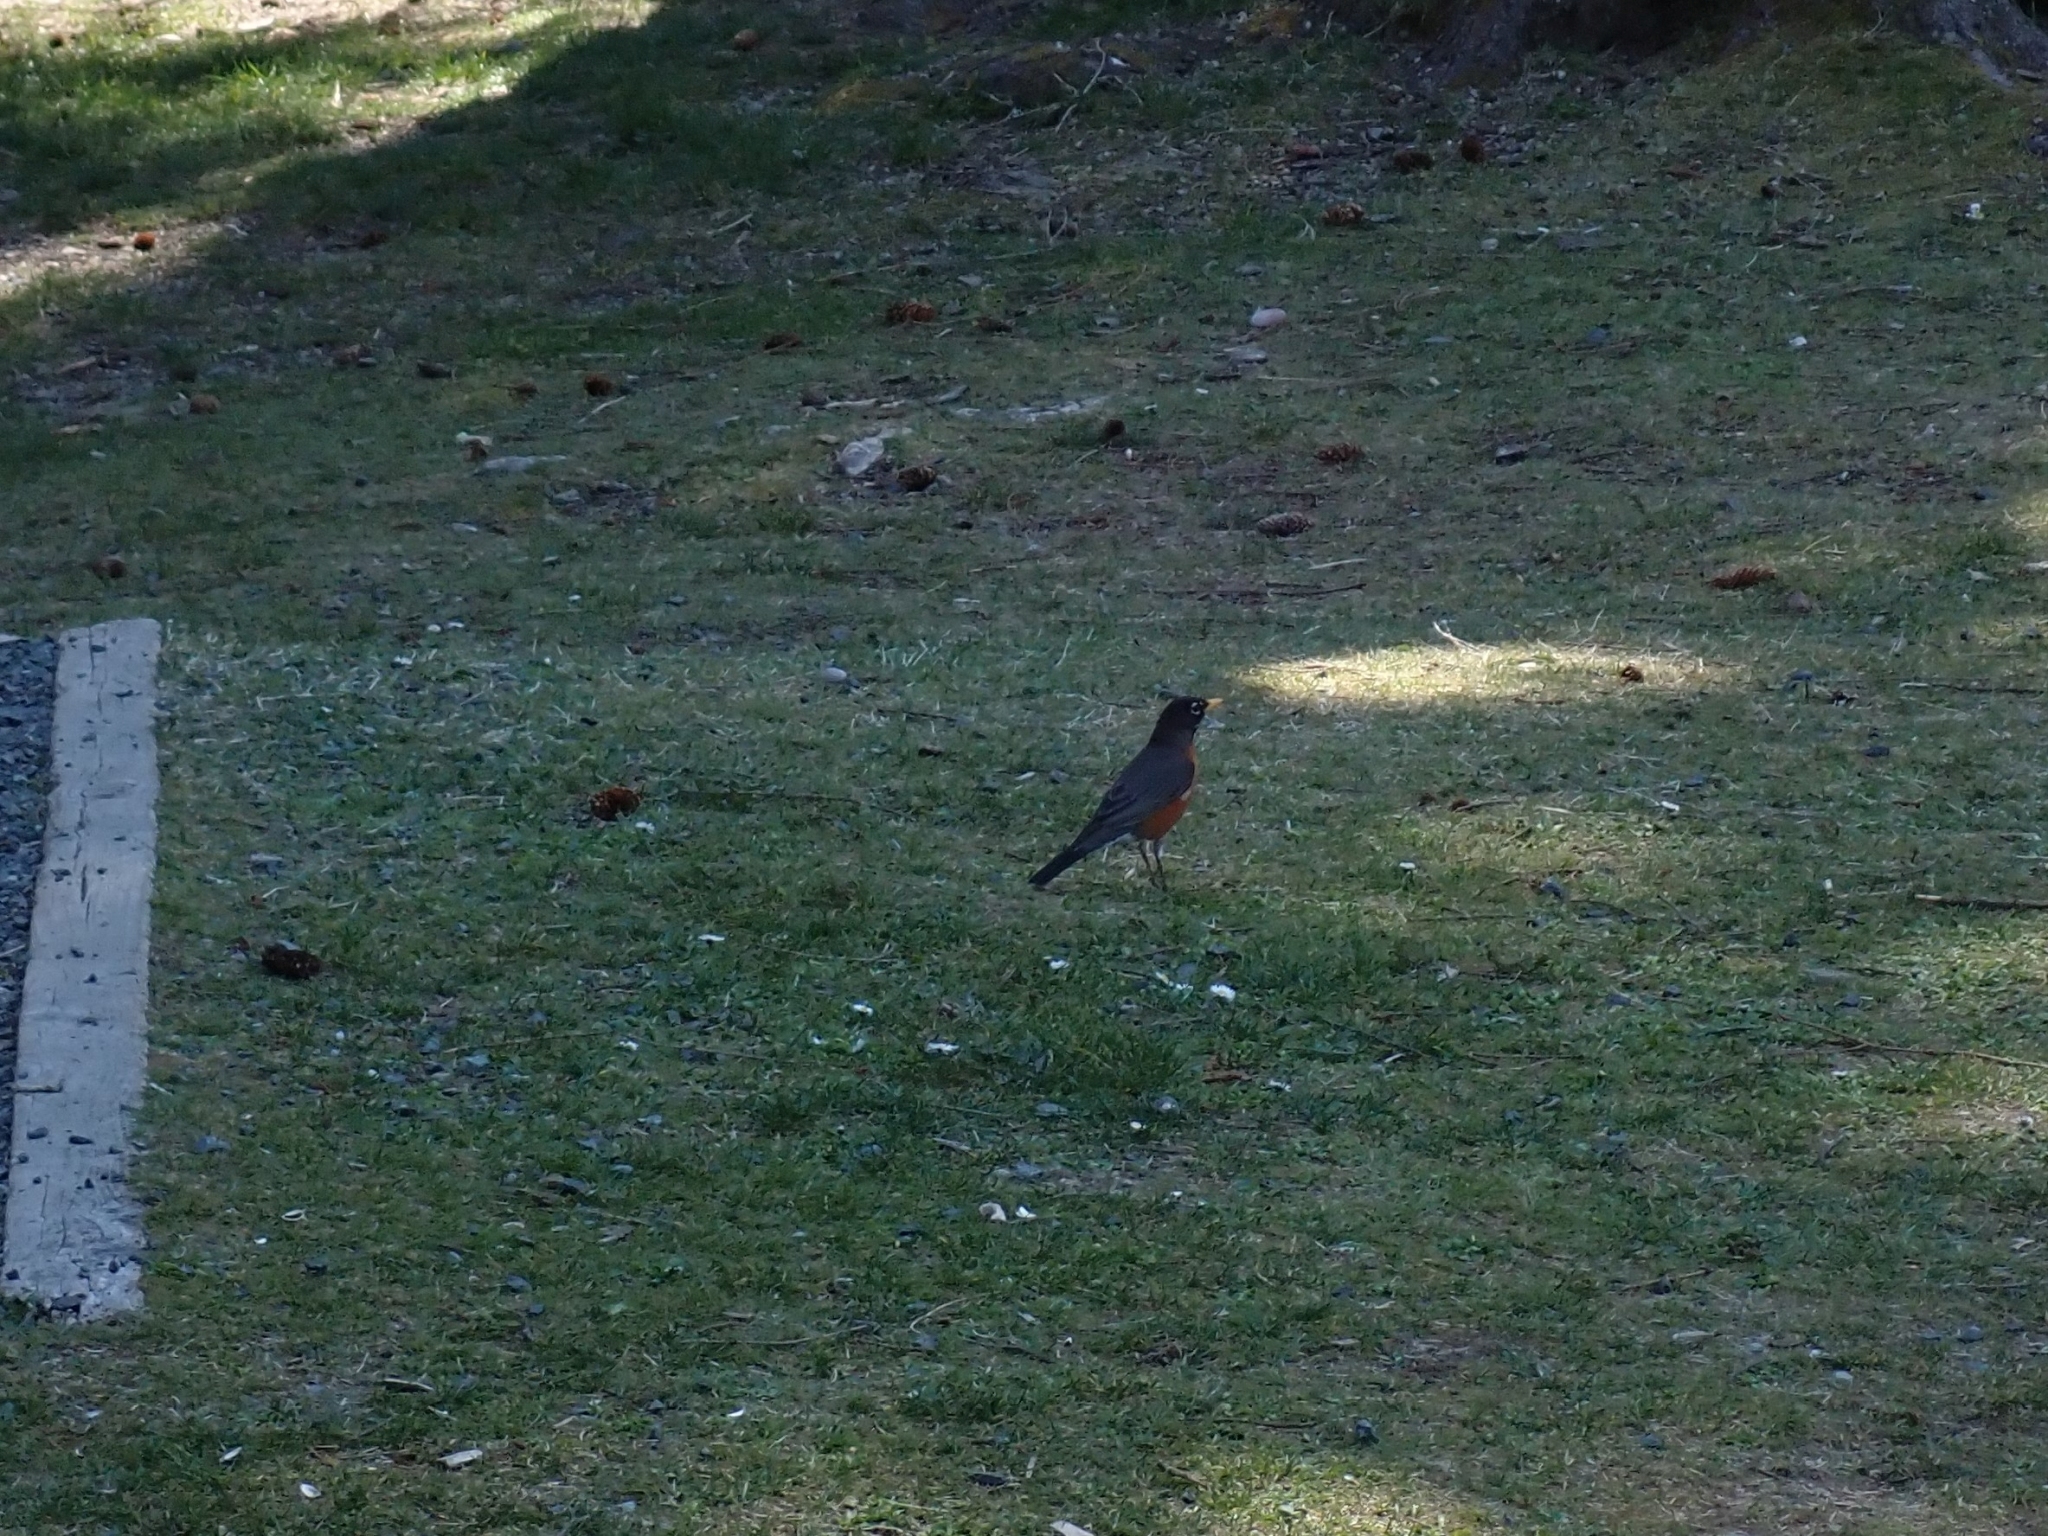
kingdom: Animalia
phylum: Chordata
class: Aves
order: Passeriformes
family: Turdidae
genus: Turdus
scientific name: Turdus migratorius
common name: American robin
